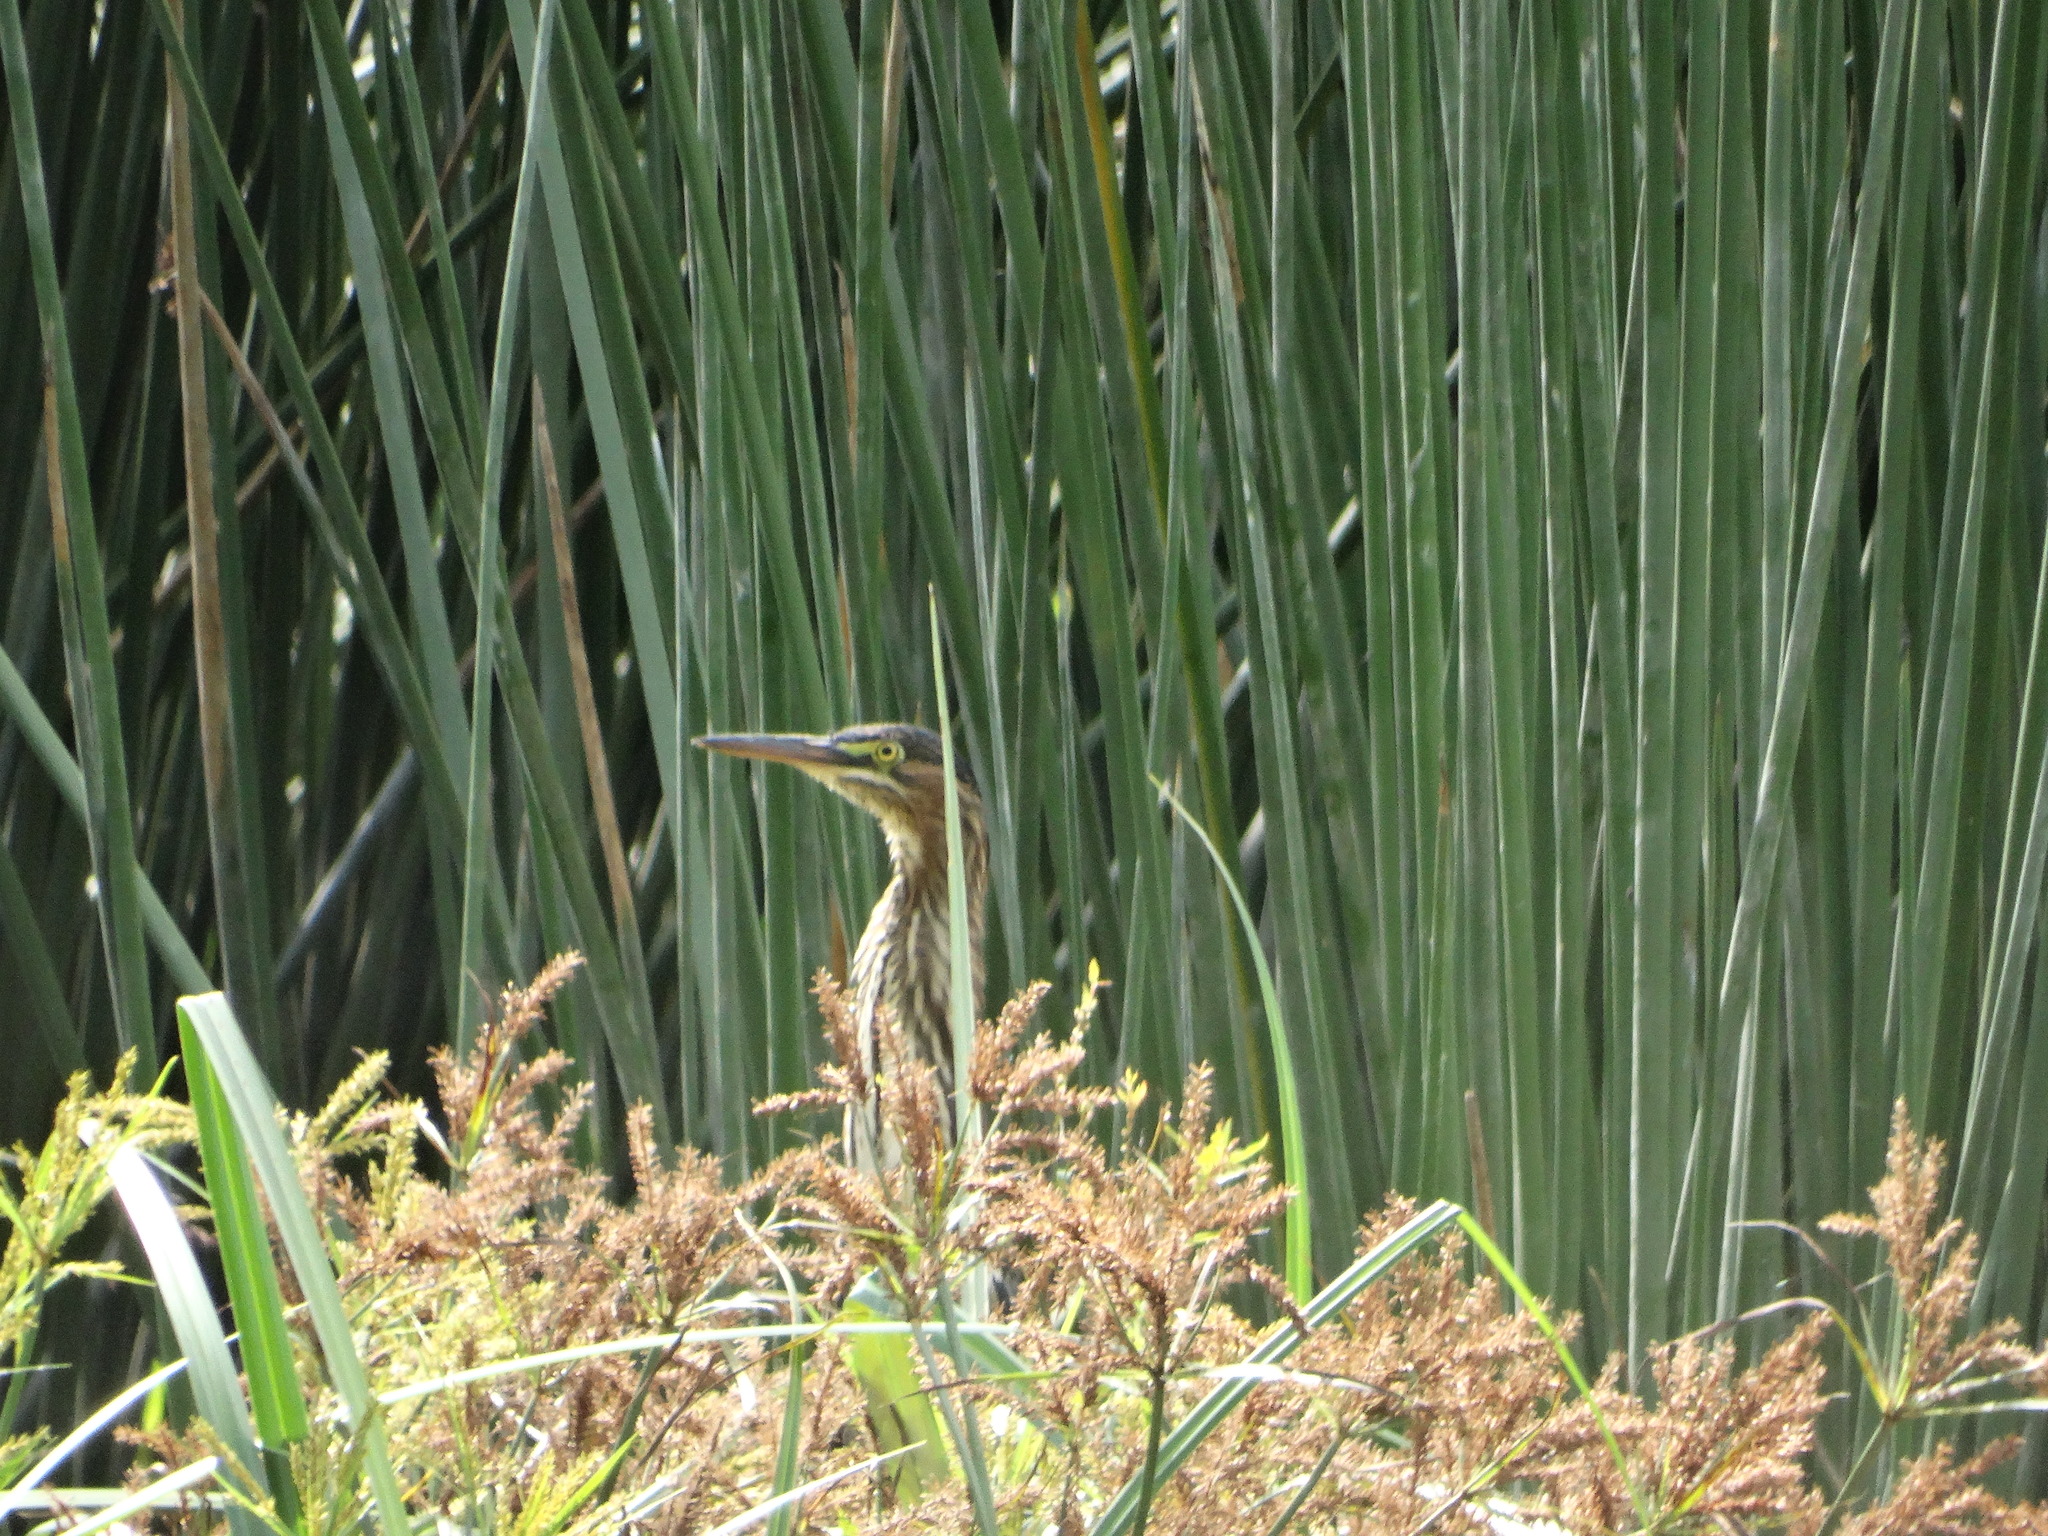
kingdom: Animalia
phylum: Chordata
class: Aves
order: Pelecaniformes
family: Ardeidae
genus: Butorides
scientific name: Butorides virescens
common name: Green heron
